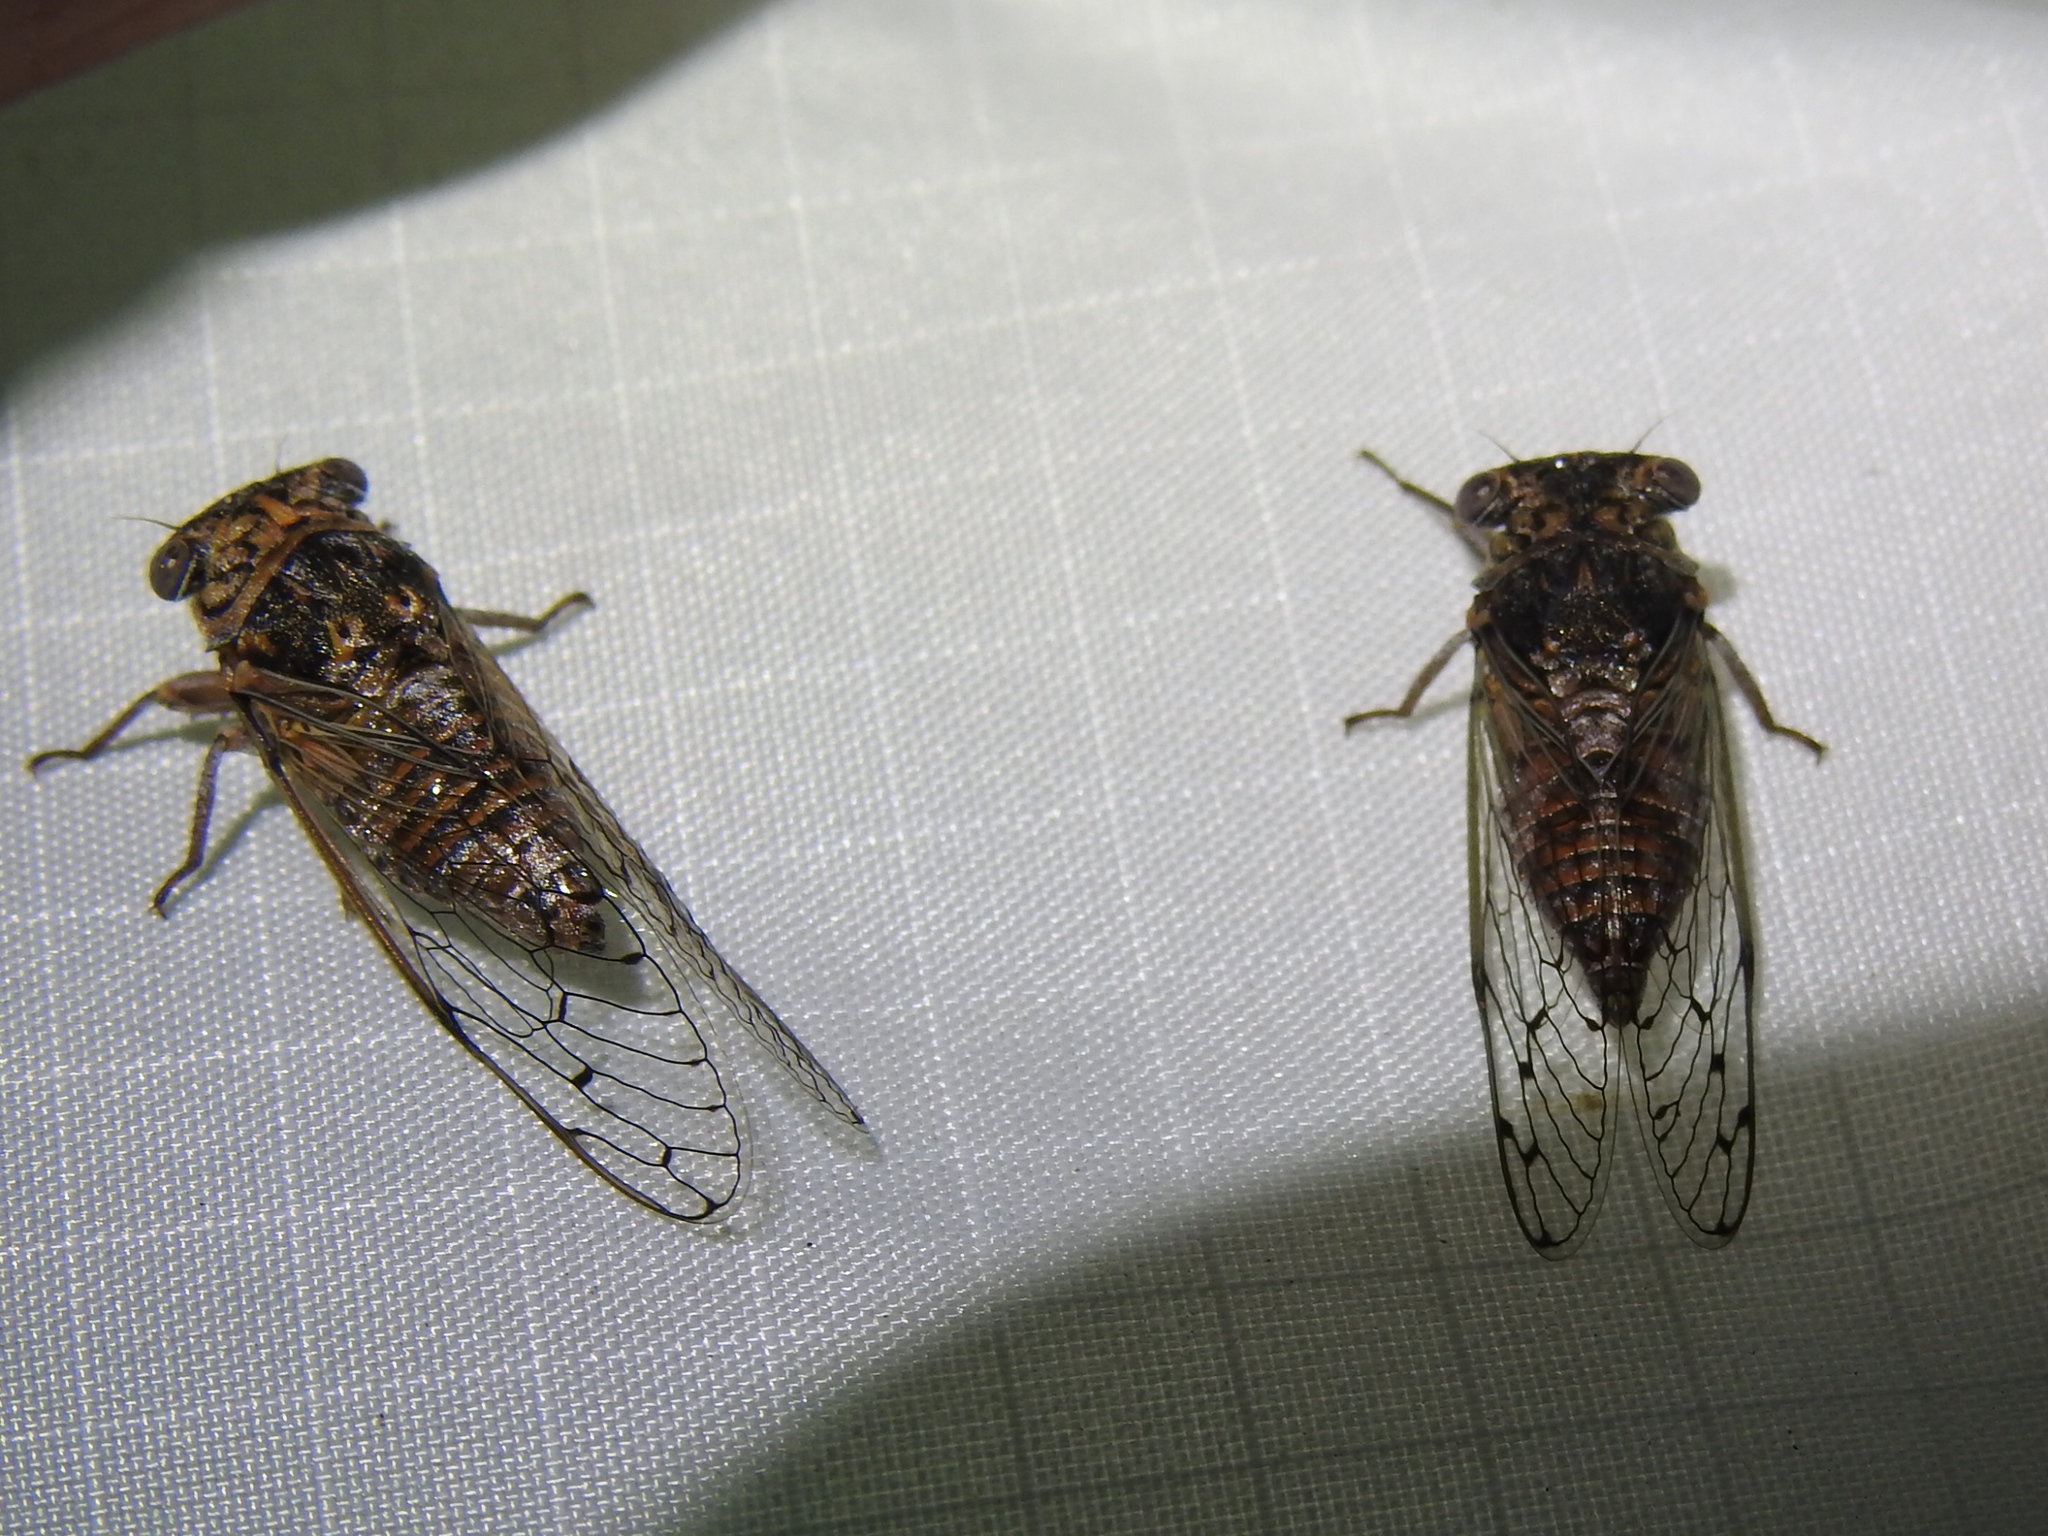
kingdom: Animalia
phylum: Arthropoda
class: Insecta
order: Hemiptera
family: Cicadidae
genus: Pacarina
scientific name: Pacarina puella
